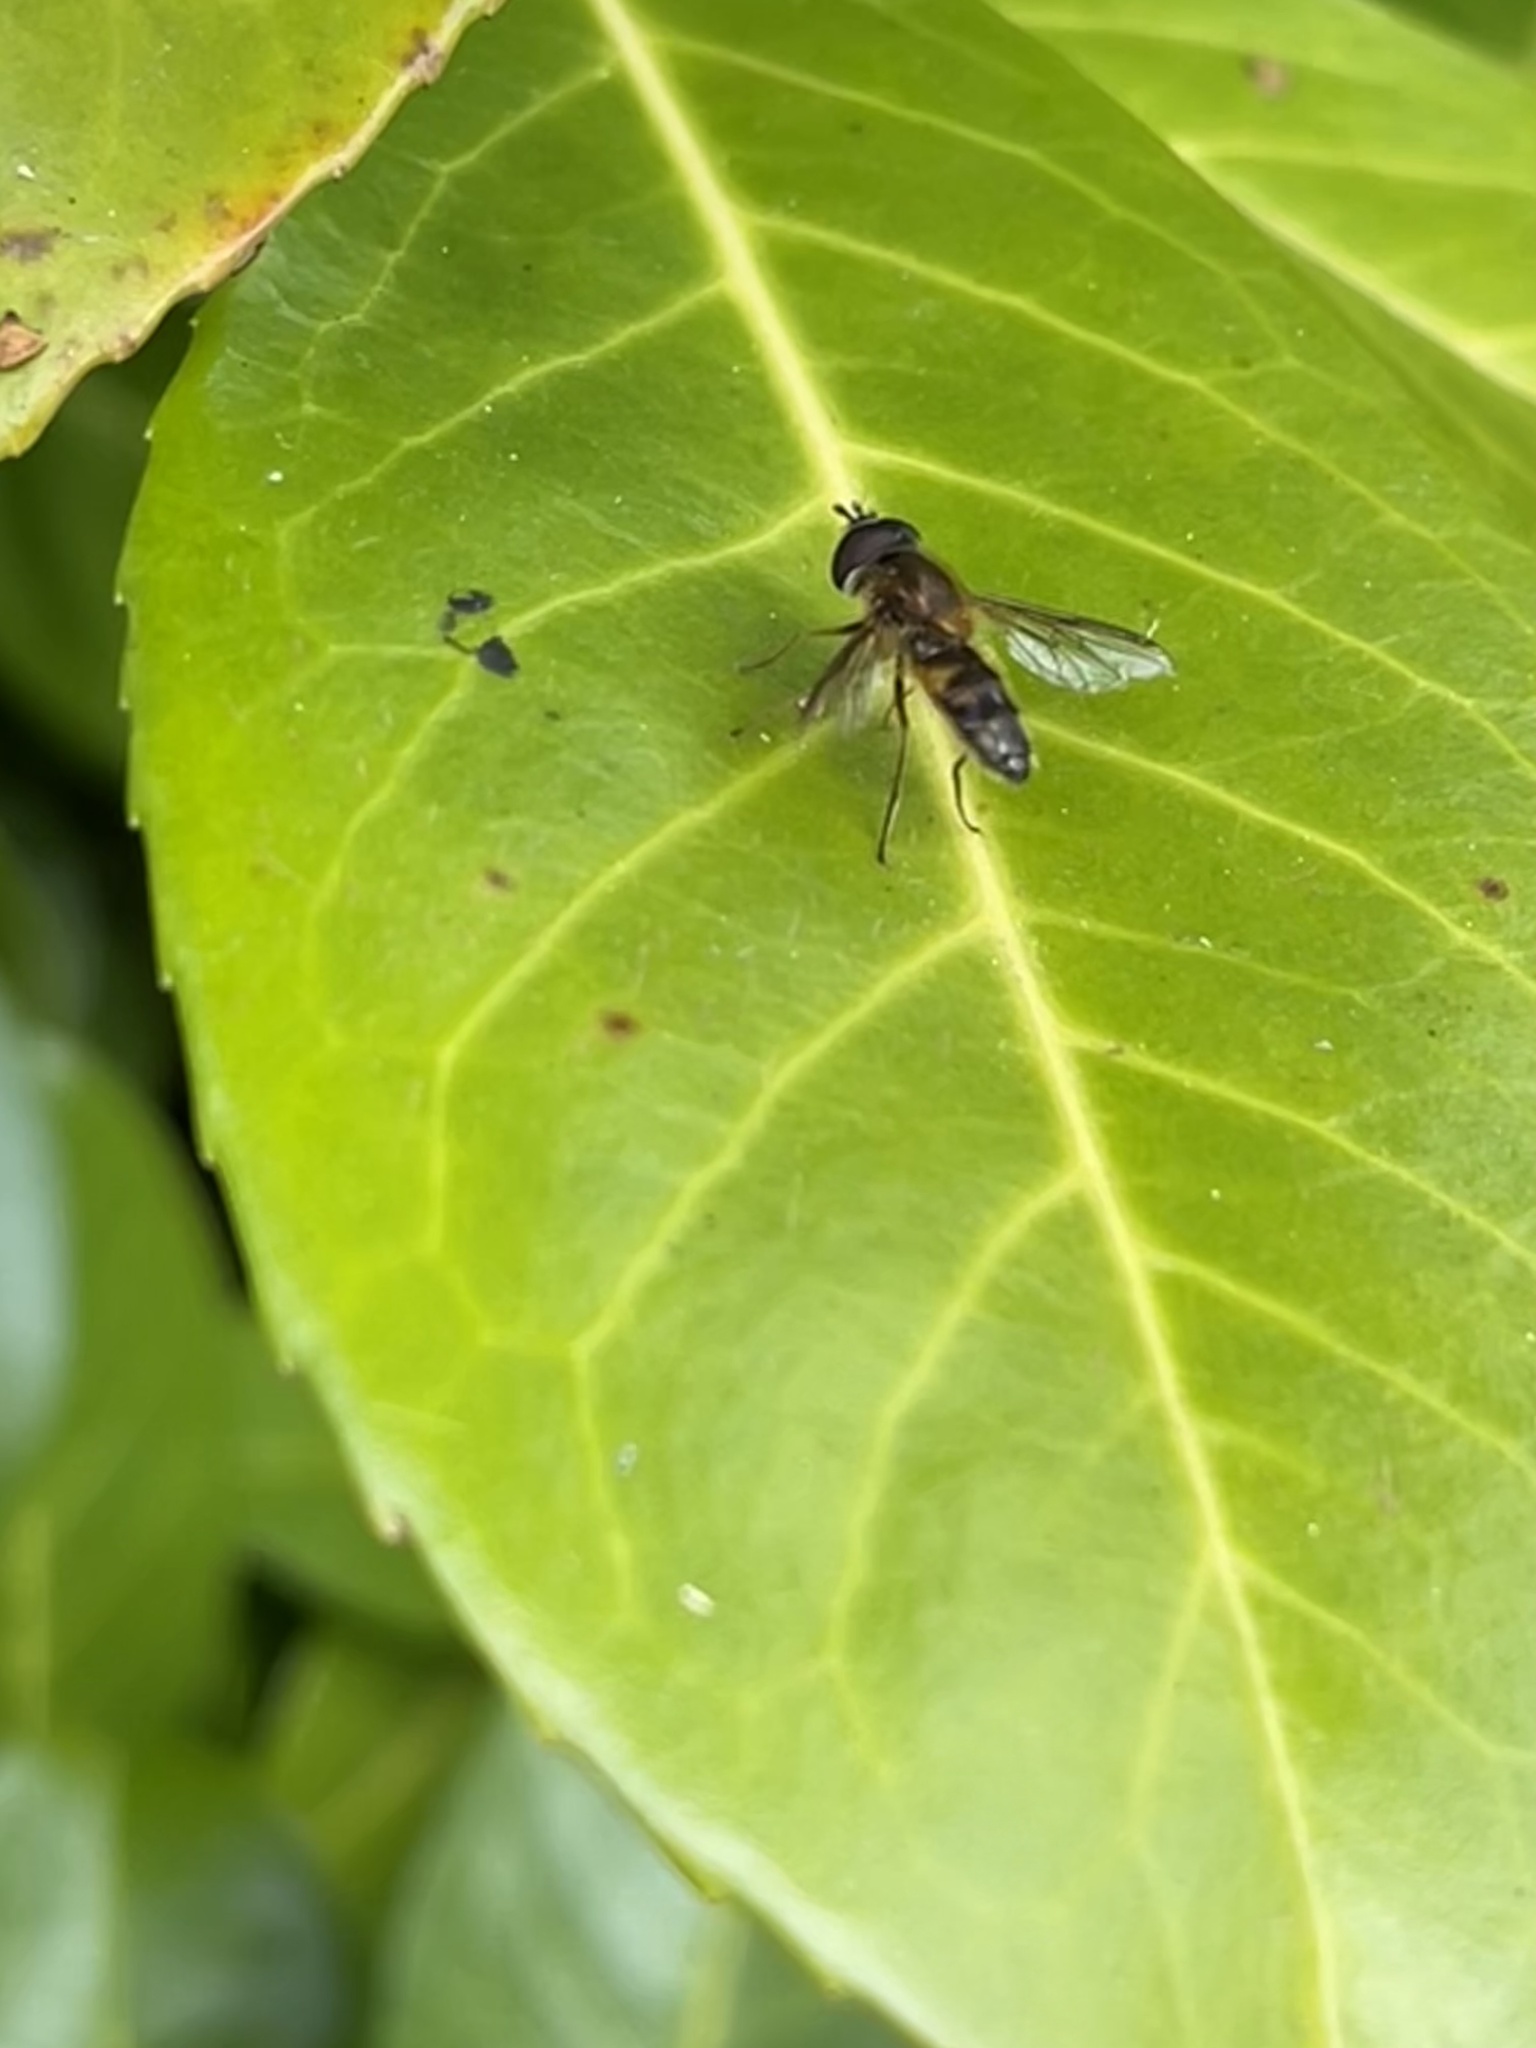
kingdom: Animalia
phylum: Arthropoda
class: Insecta
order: Diptera
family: Syrphidae
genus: Epistrophe
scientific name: Epistrophe eligans
